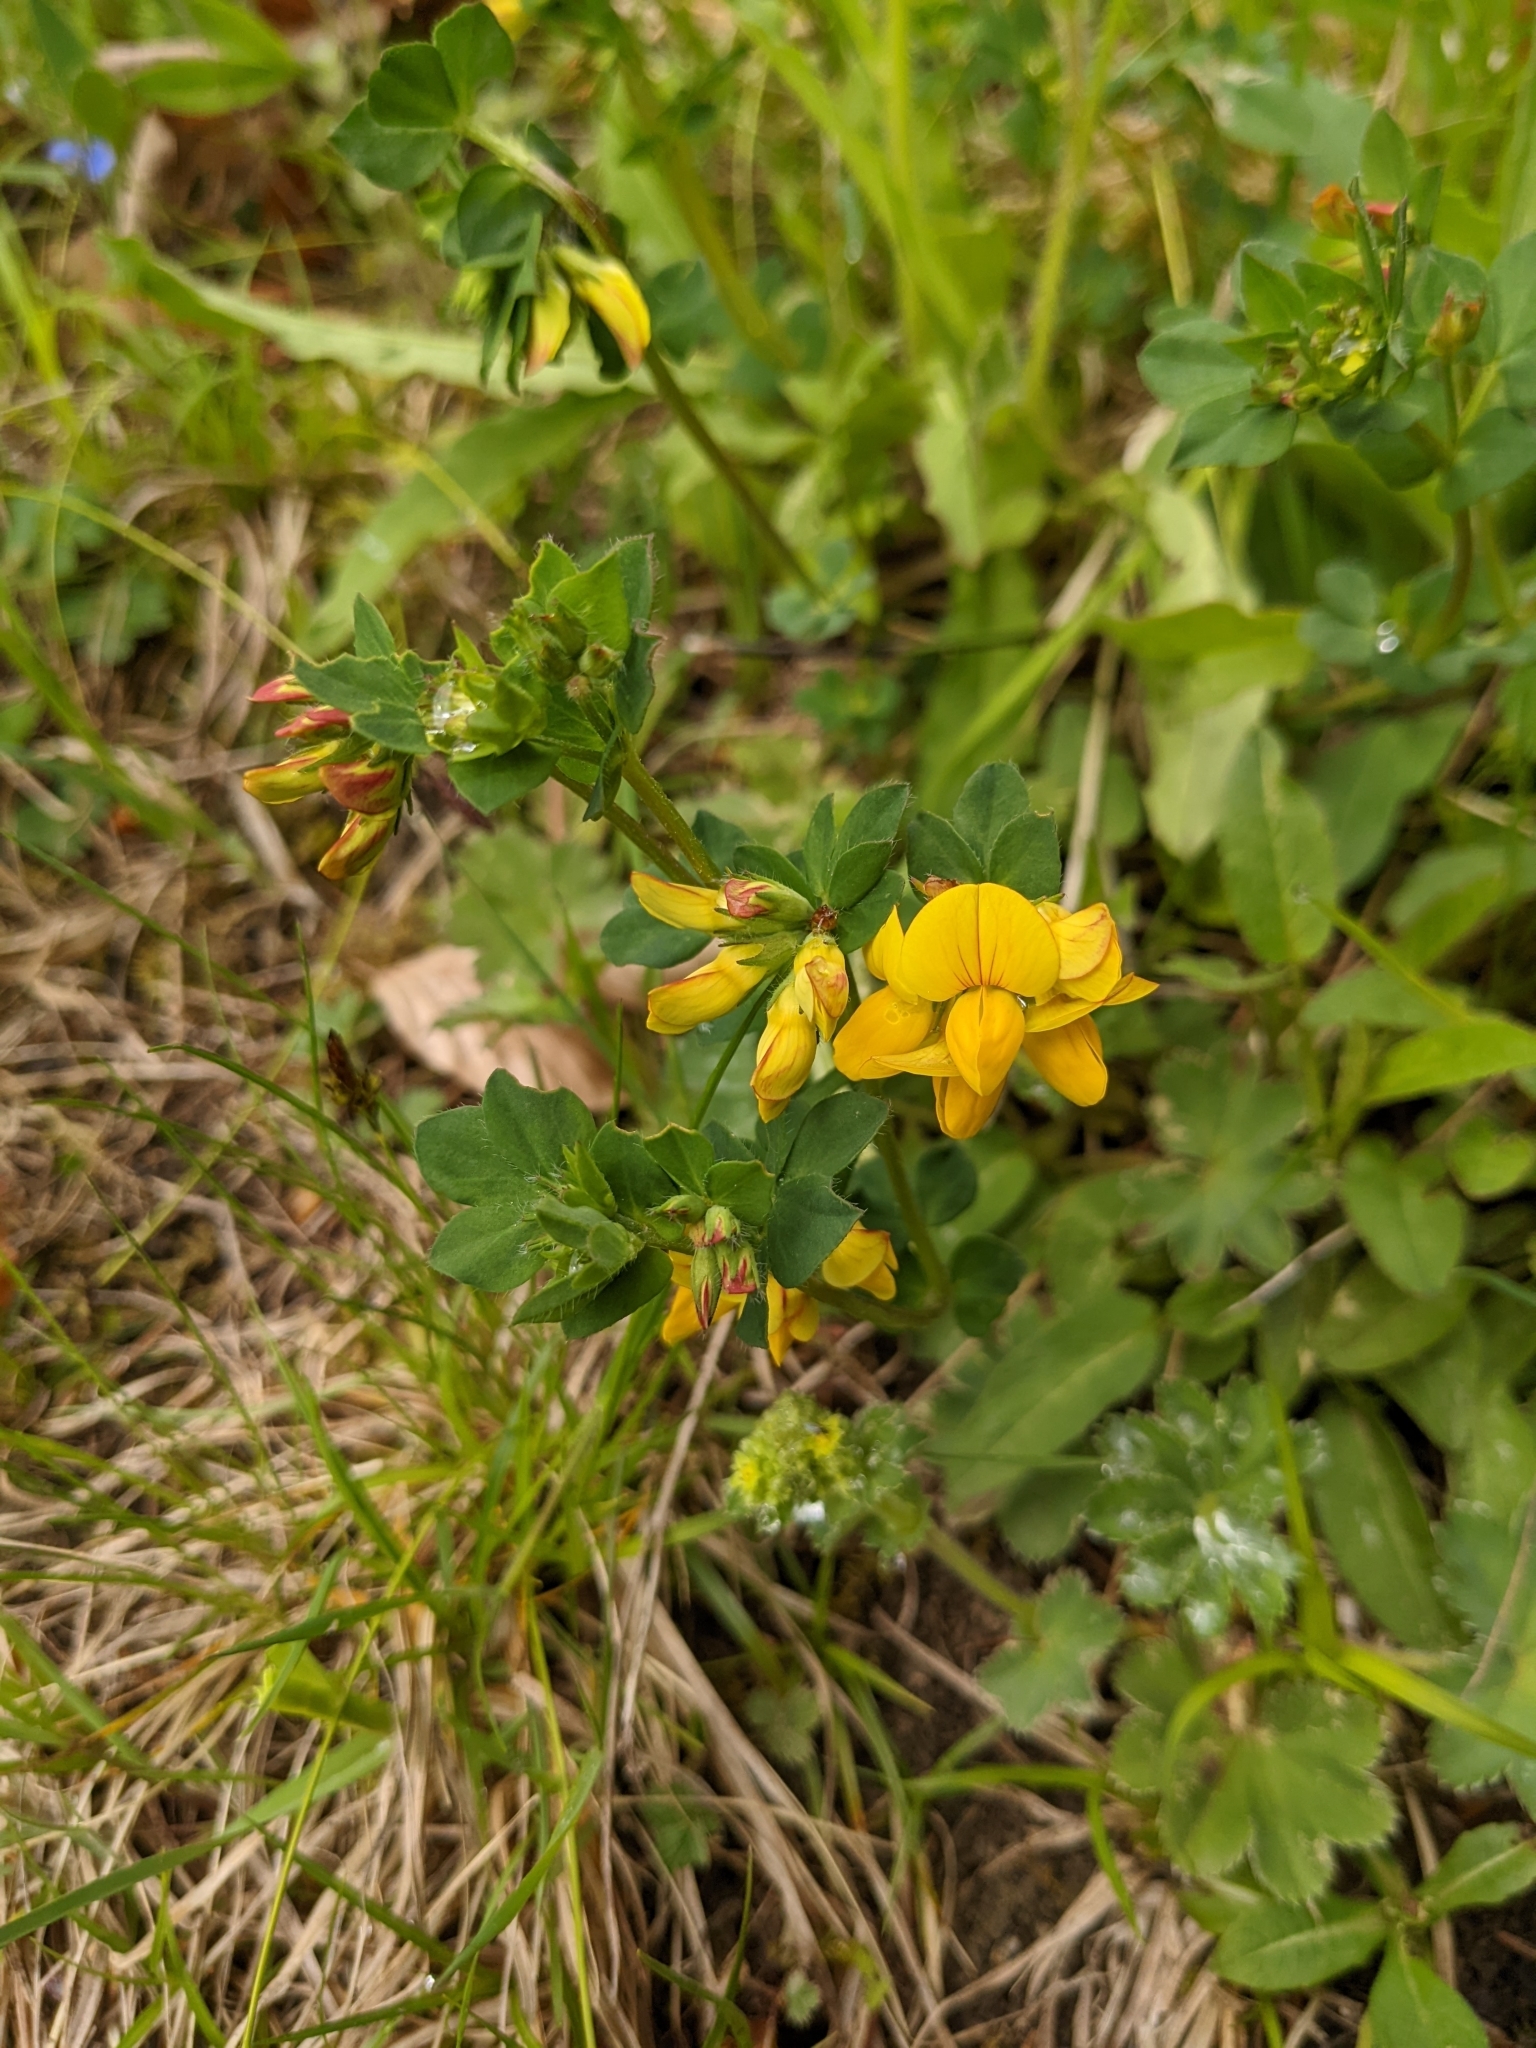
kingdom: Plantae
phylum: Tracheophyta
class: Magnoliopsida
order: Fabales
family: Fabaceae
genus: Lotus
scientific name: Lotus corniculatus
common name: Common bird's-foot-trefoil
